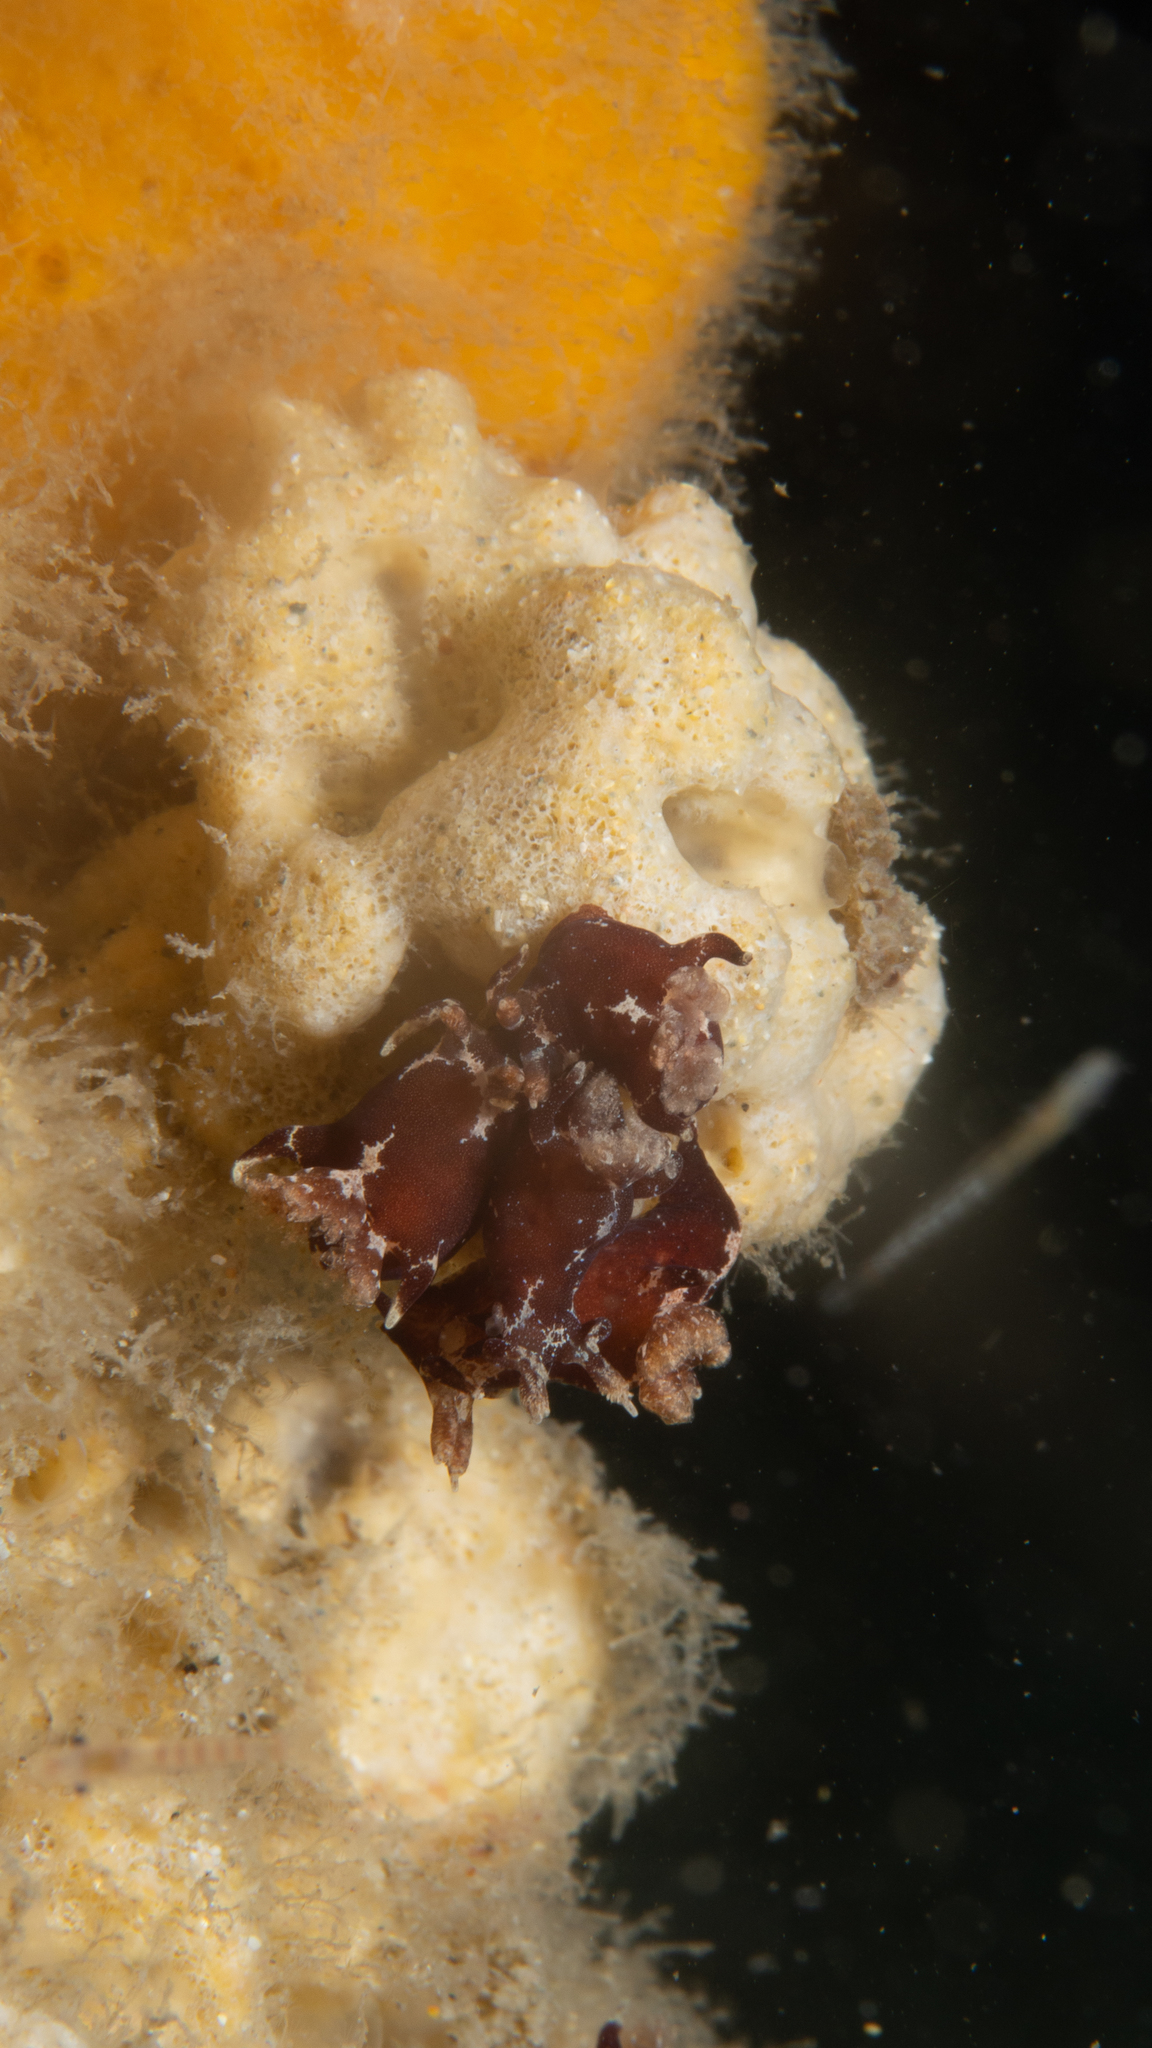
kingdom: Animalia
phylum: Mollusca
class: Gastropoda
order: Nudibranchia
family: Goniodorididae
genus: Trapania
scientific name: Trapania brunnea
